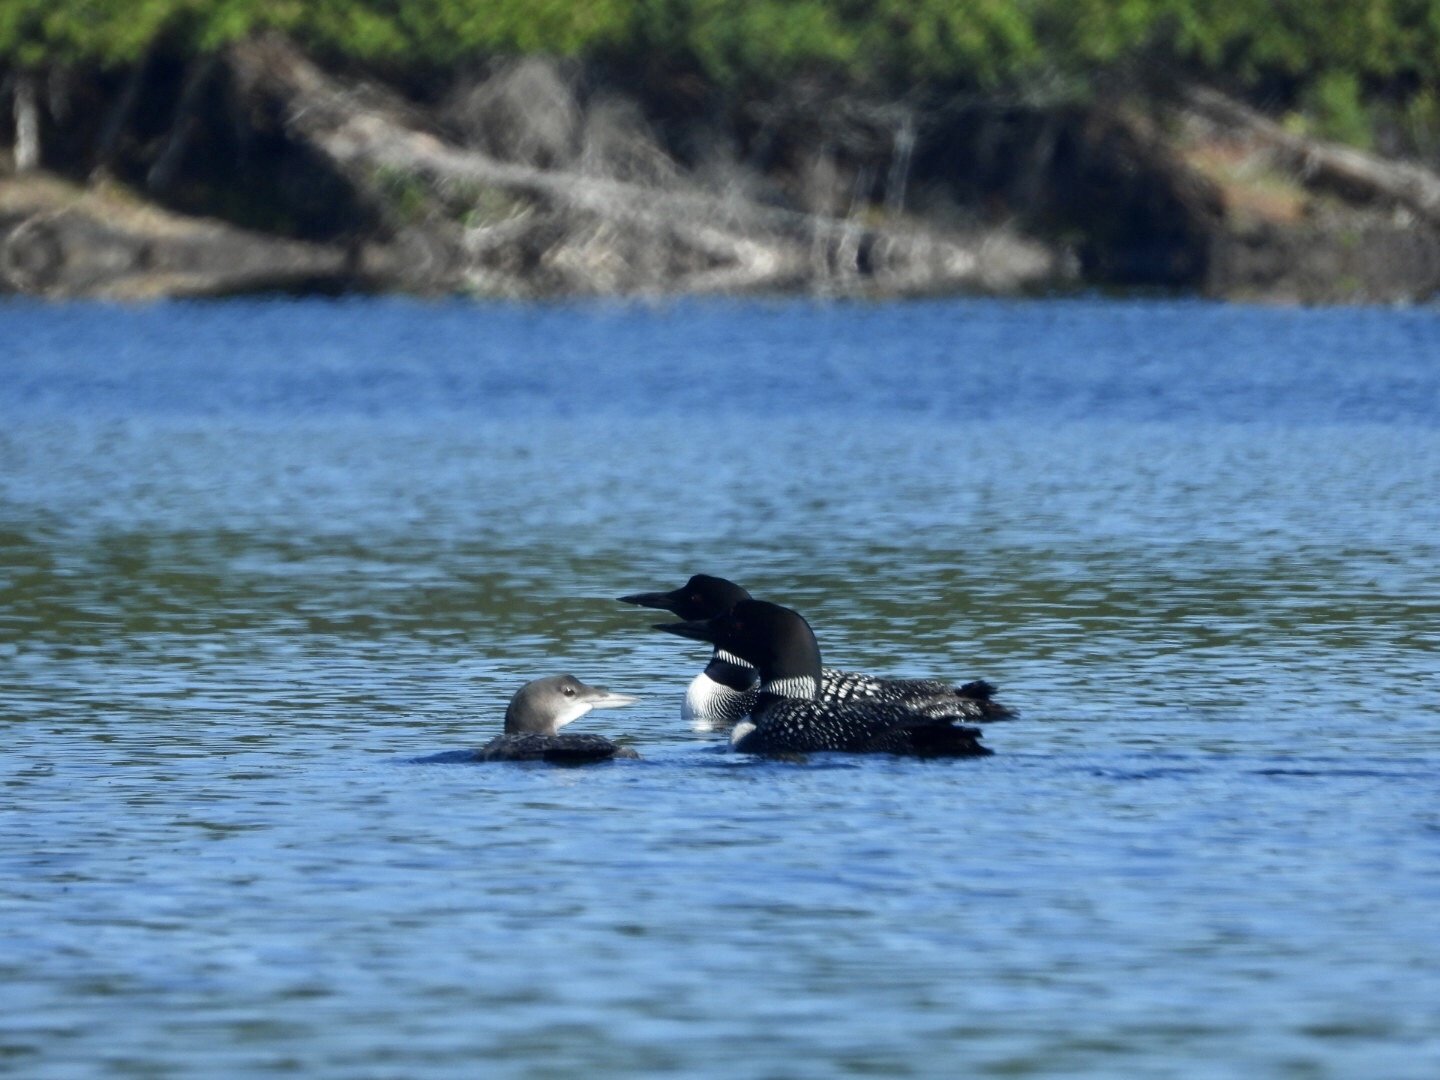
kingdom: Animalia
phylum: Chordata
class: Aves
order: Gaviiformes
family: Gaviidae
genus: Gavia
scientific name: Gavia immer
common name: Common loon
